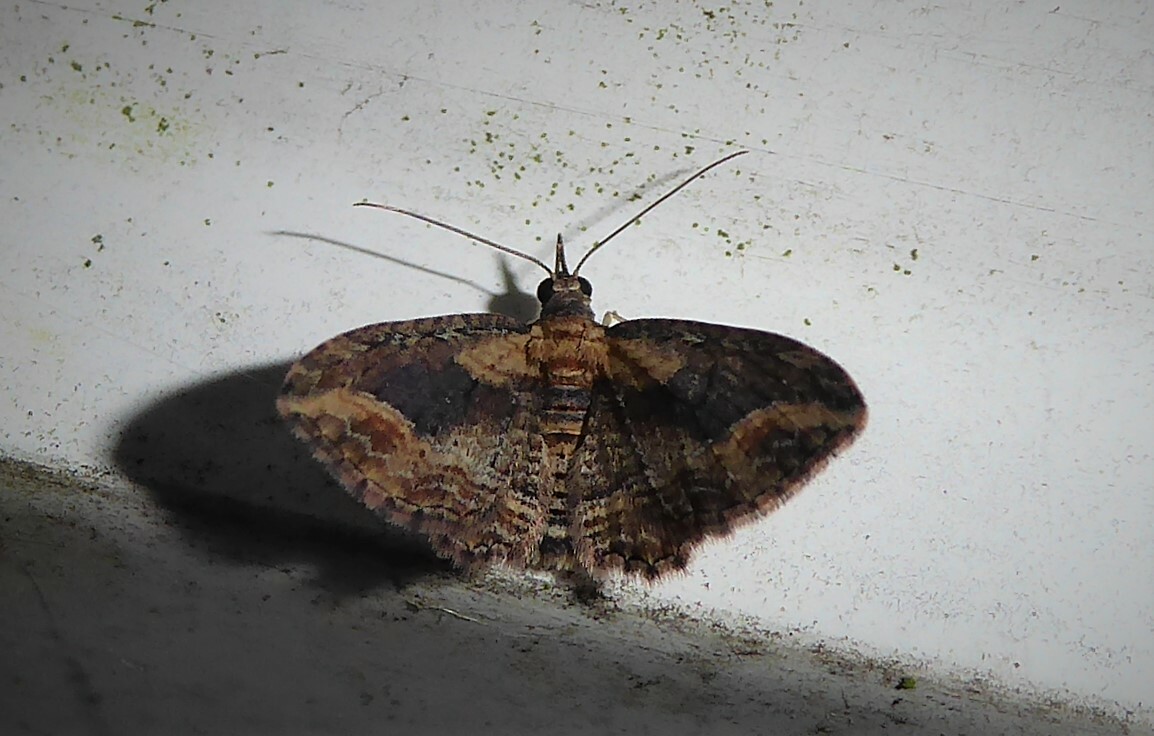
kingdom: Animalia
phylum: Arthropoda
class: Insecta
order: Lepidoptera
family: Geometridae
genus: Chloroclystis
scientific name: Chloroclystis filata
